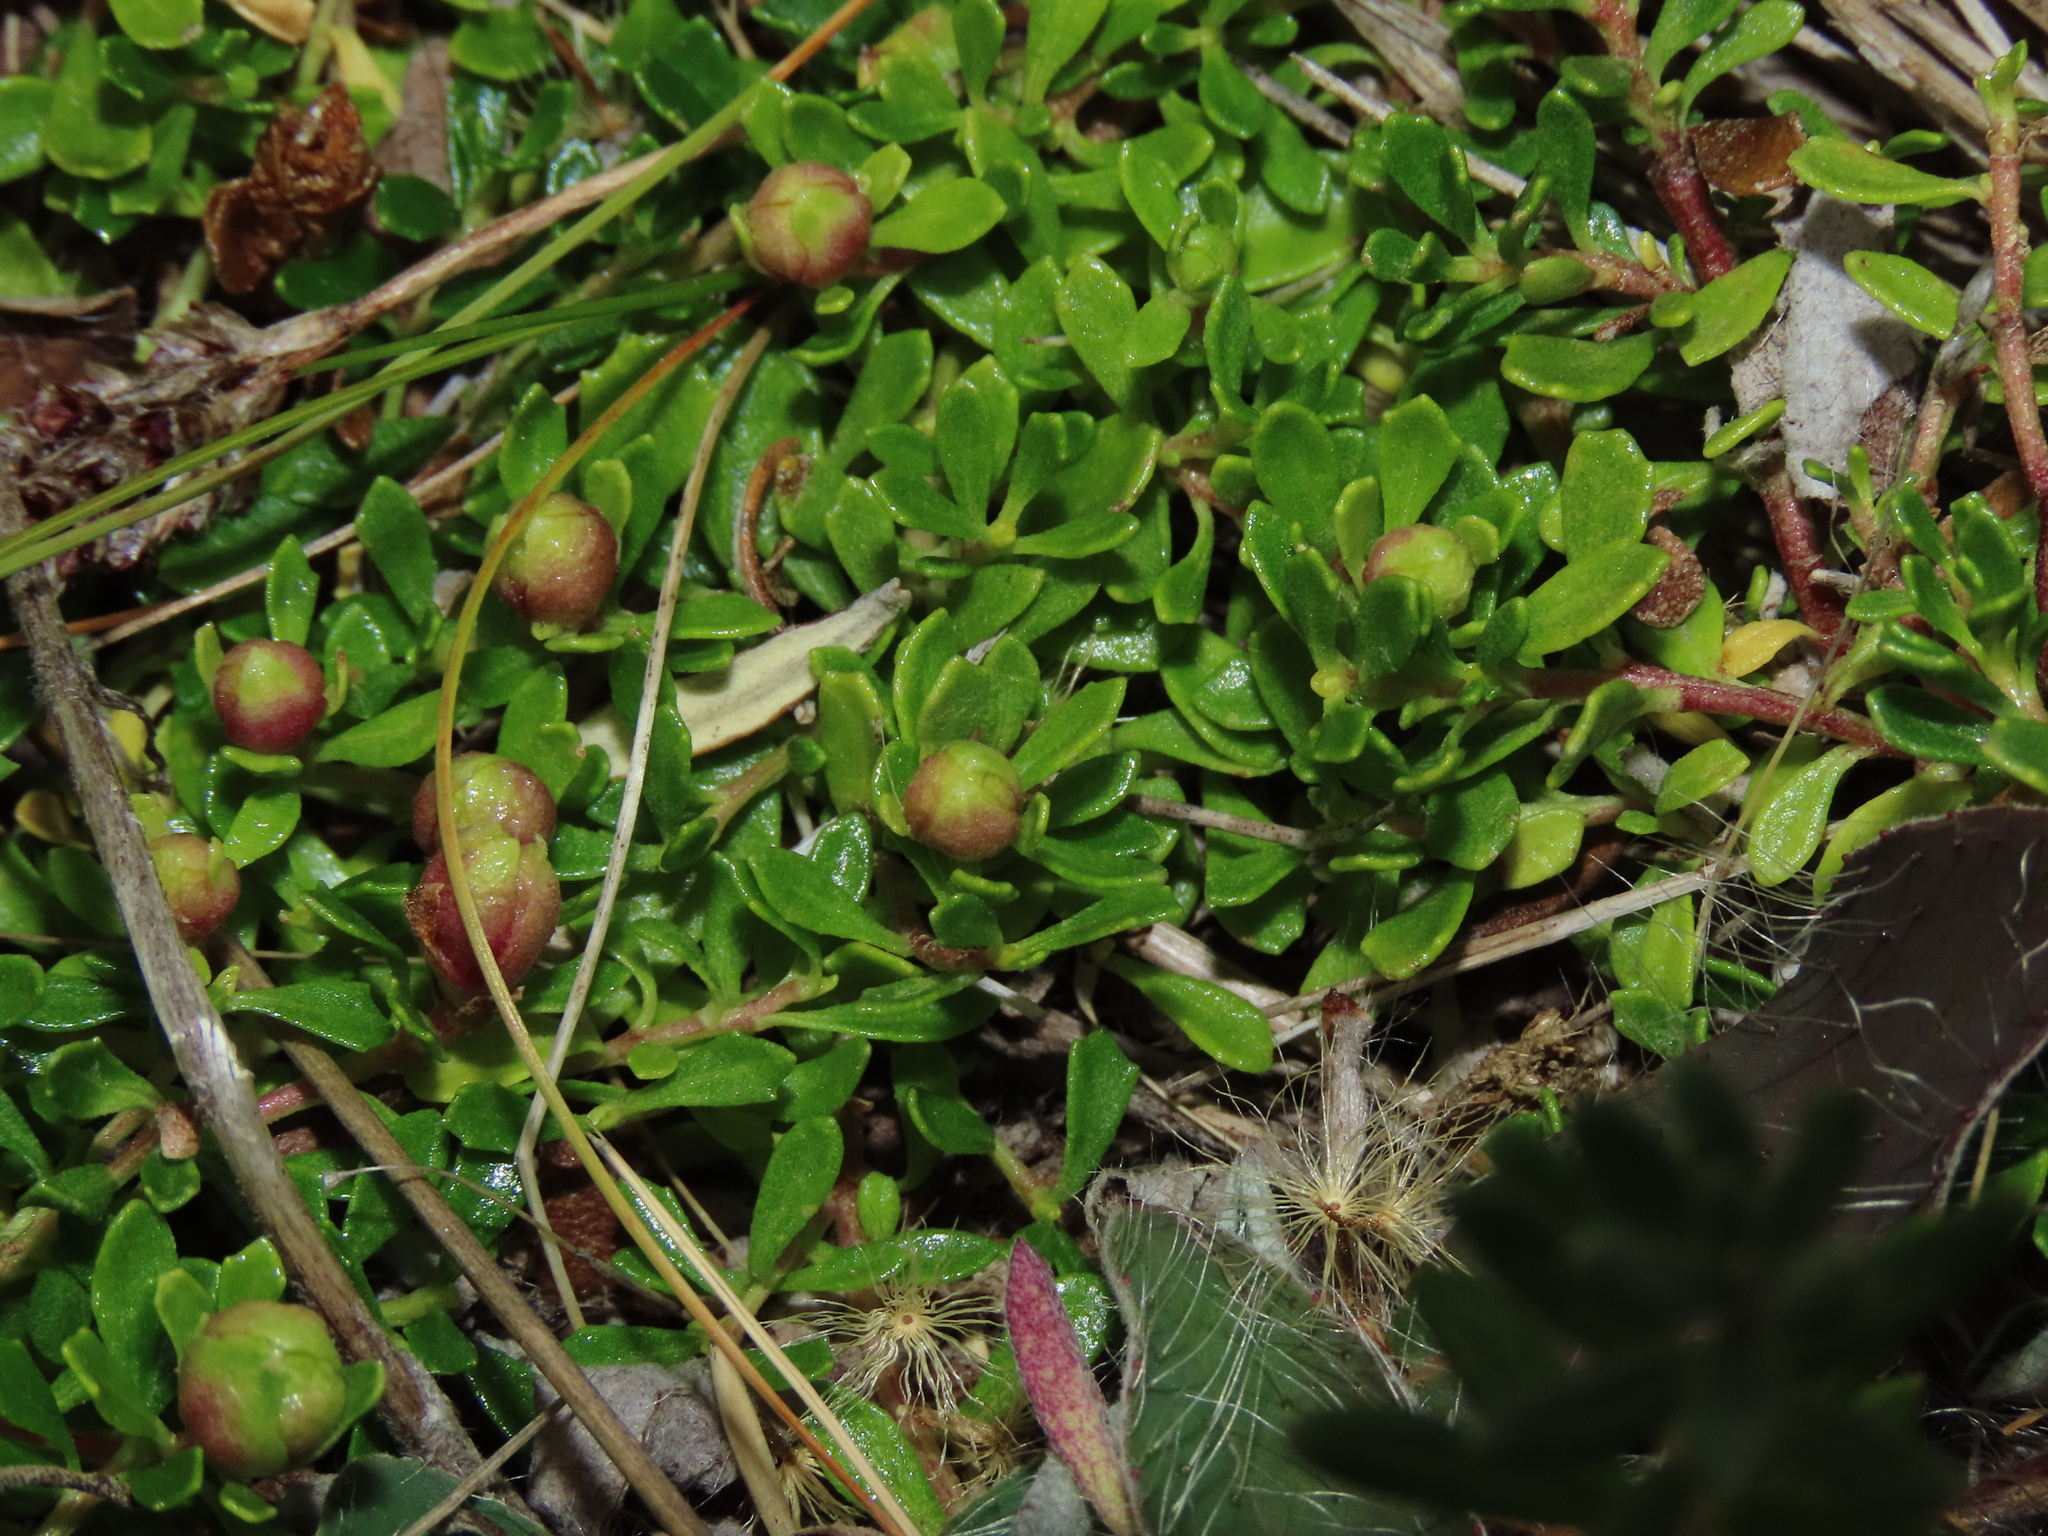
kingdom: Plantae
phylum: Tracheophyta
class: Magnoliopsida
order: Asterales
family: Asteraceae
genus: Baccharis
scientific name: Baccharis magellanica
